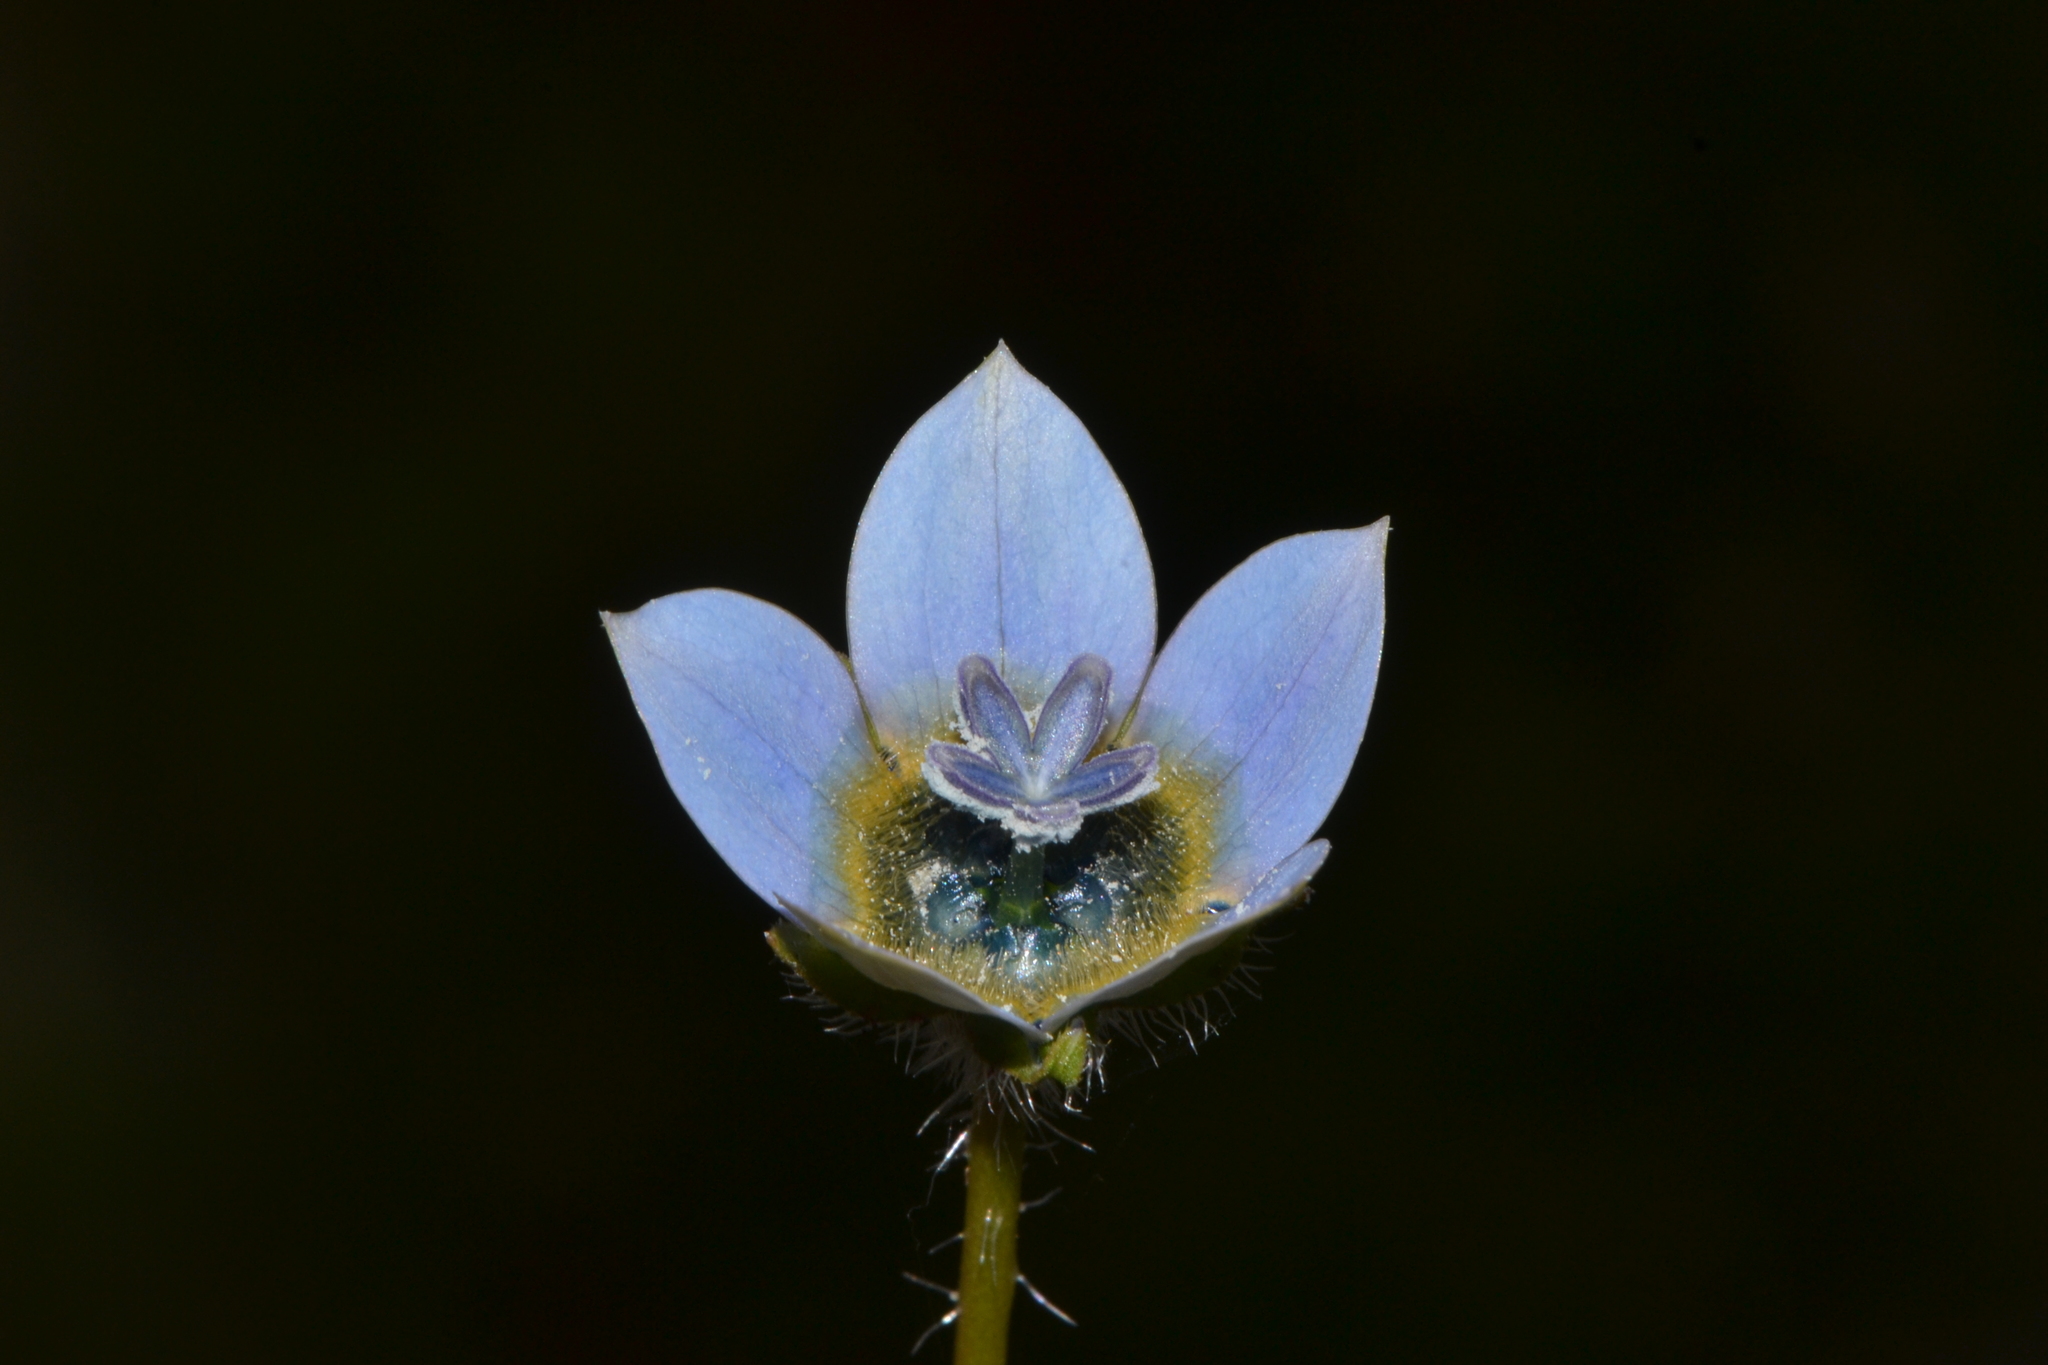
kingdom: Plantae
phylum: Tracheophyta
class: Magnoliopsida
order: Asterales
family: Campanulaceae
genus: Wahlenbergia
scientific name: Wahlenbergia capensis
